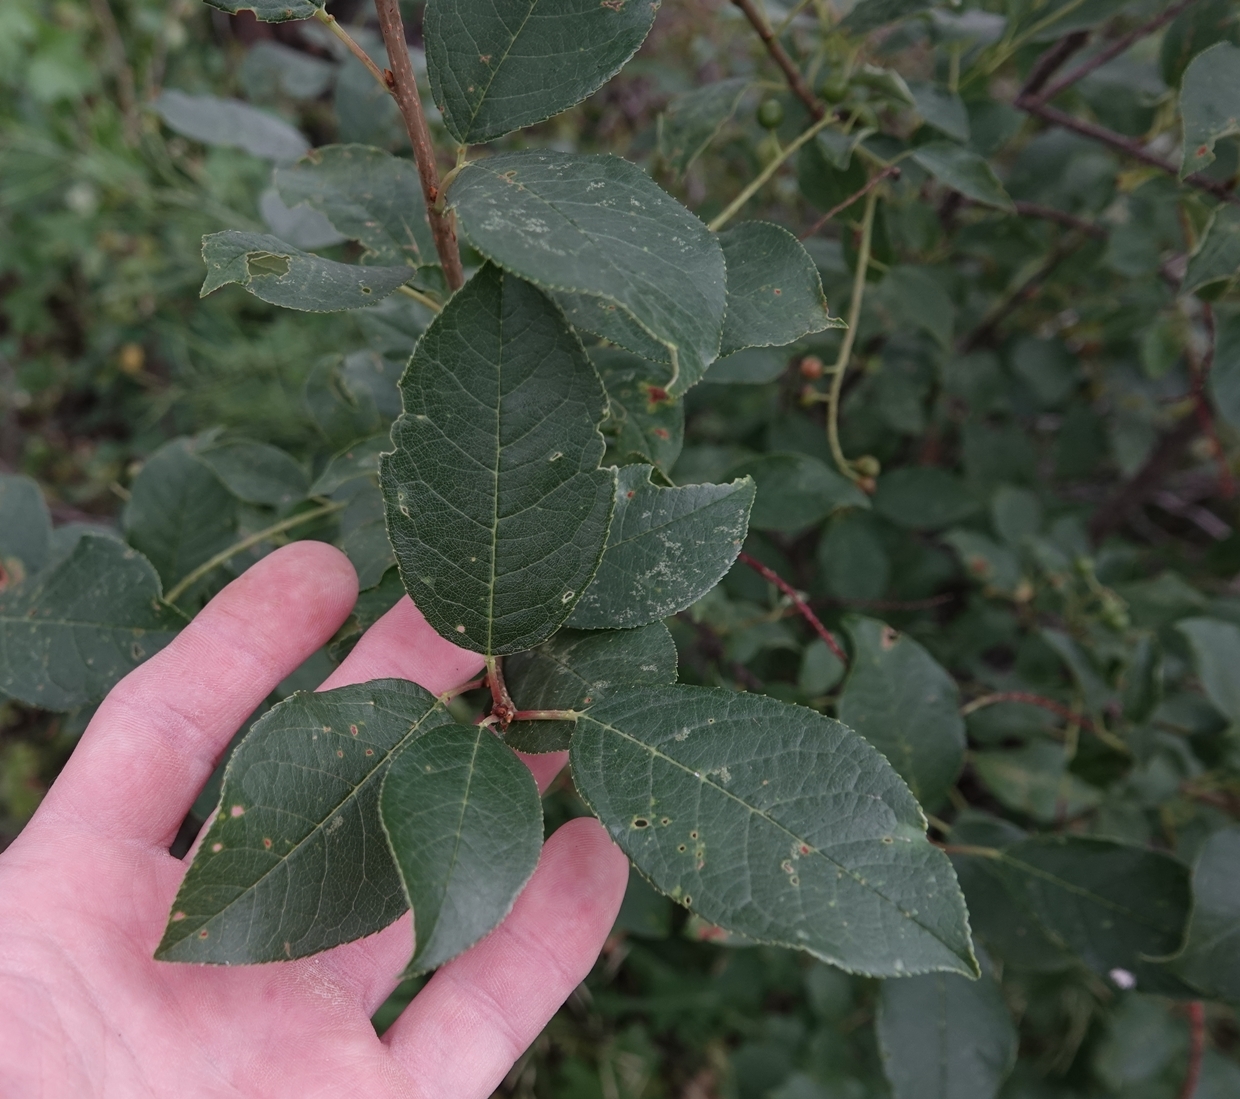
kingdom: Plantae
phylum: Tracheophyta
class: Magnoliopsida
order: Rosales
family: Rosaceae
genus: Prunus
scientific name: Prunus virginiana
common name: Chokecherry
